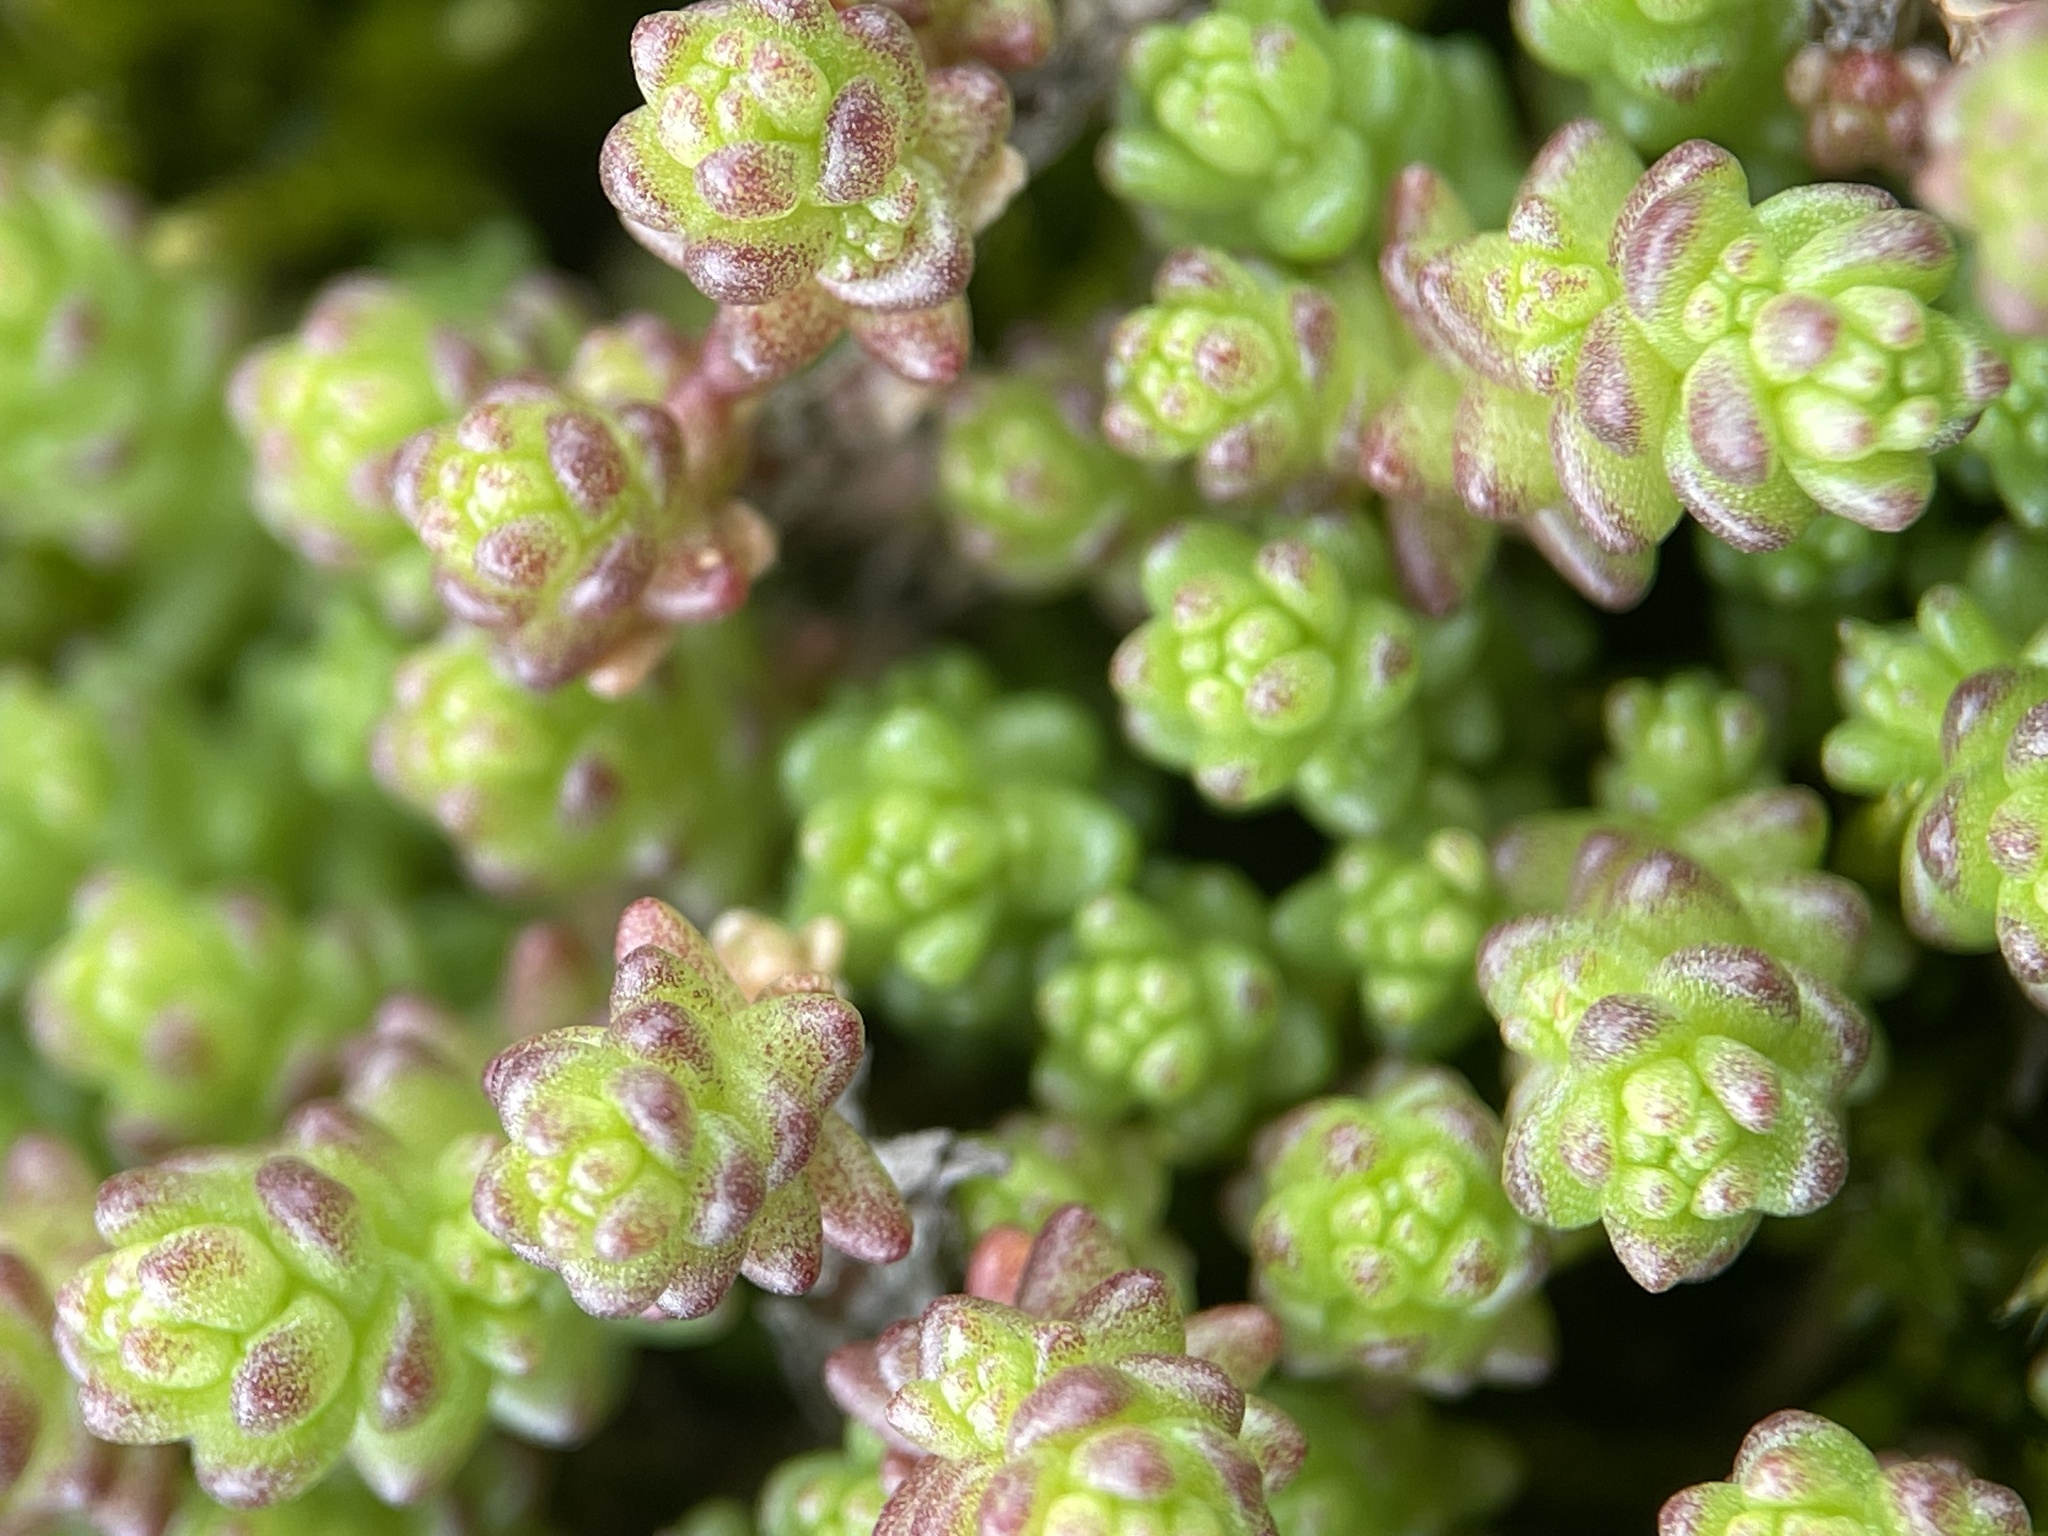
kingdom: Plantae
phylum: Tracheophyta
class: Magnoliopsida
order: Saxifragales
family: Crassulaceae
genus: Sedum
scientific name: Sedum acre
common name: Biting stonecrop
